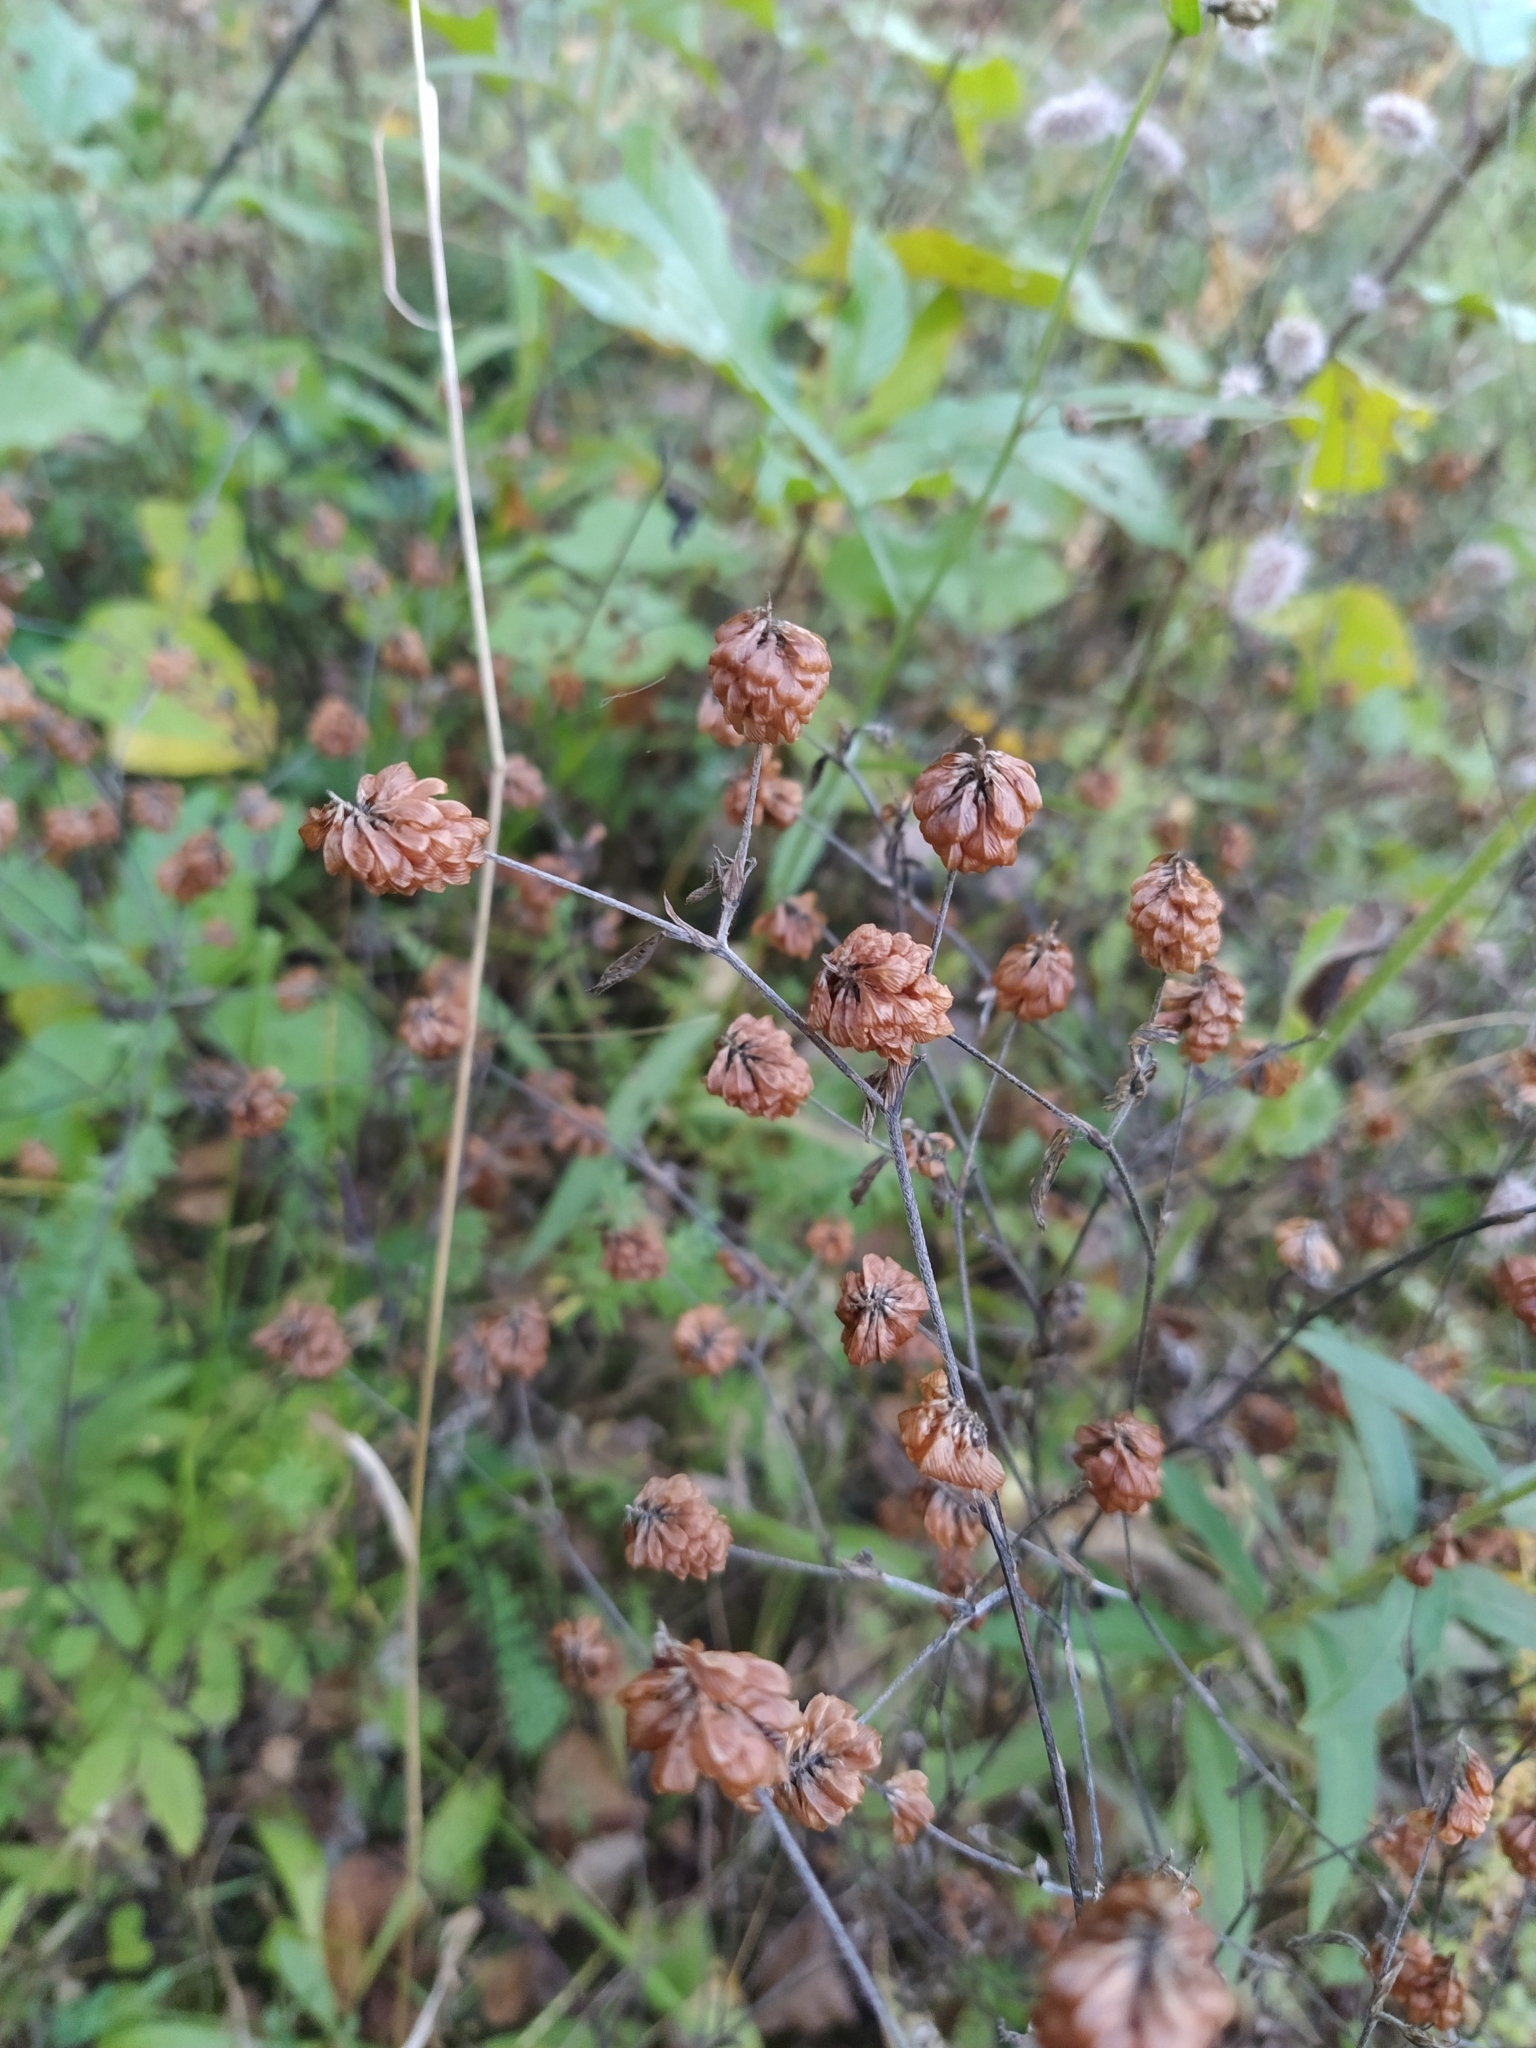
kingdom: Plantae
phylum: Tracheophyta
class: Magnoliopsida
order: Fabales
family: Fabaceae
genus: Trifolium
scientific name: Trifolium aureum
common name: Golden clover
